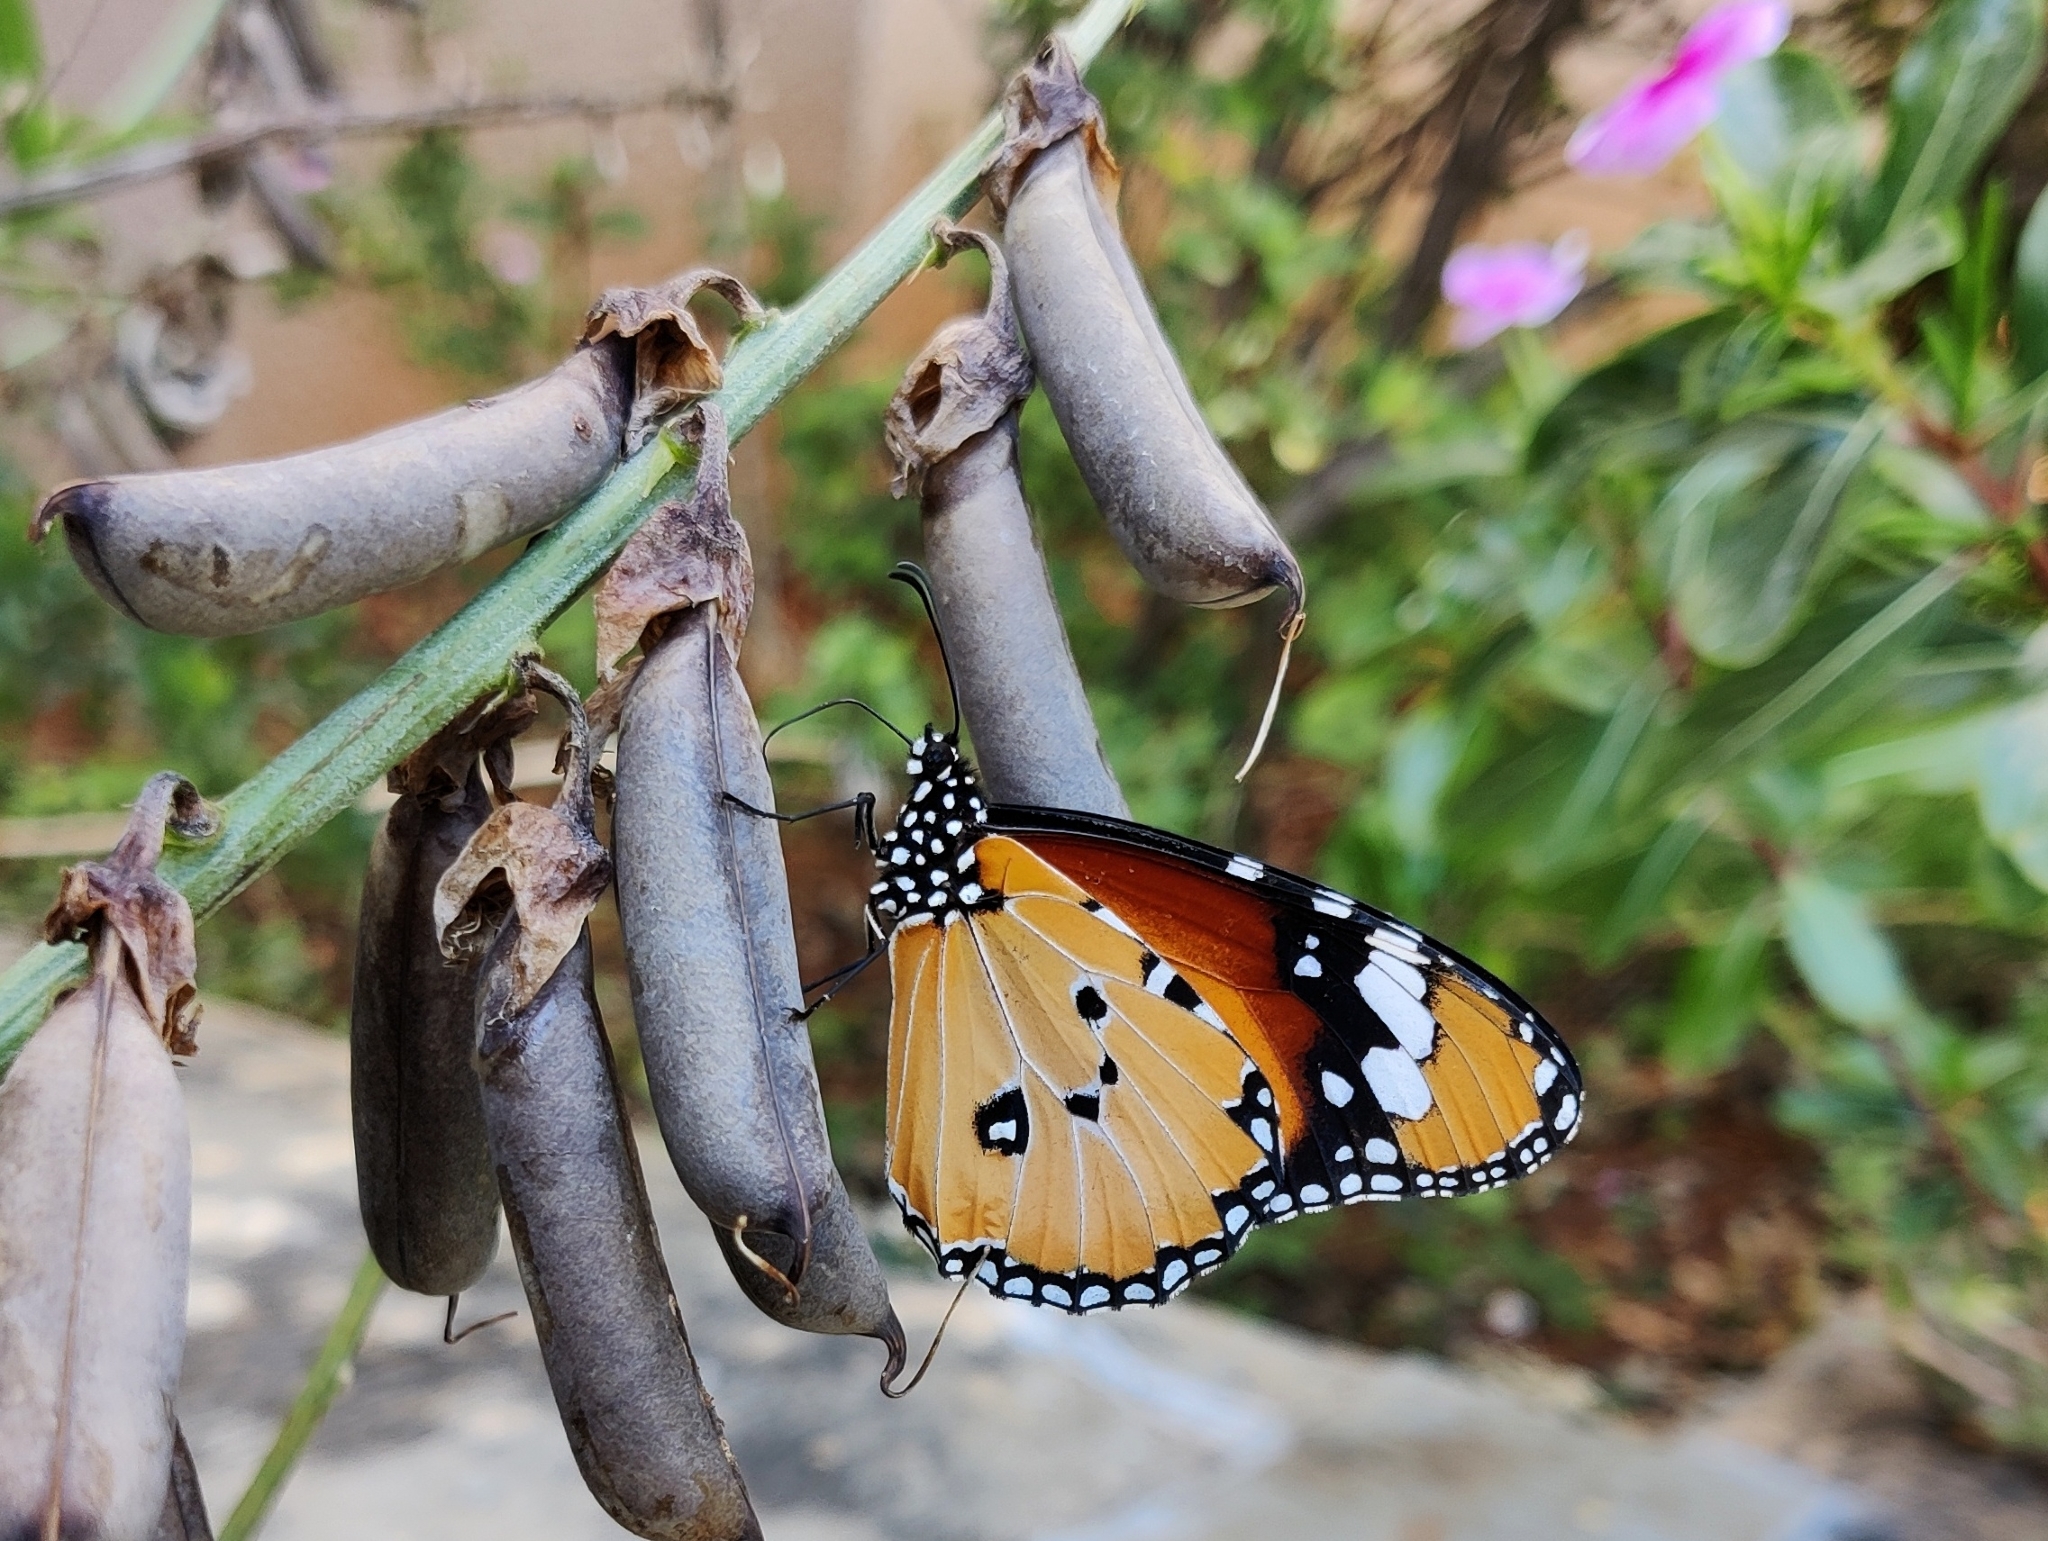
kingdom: Animalia
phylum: Arthropoda
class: Insecta
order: Lepidoptera
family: Nymphalidae
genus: Danaus
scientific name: Danaus chrysippus
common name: Plain tiger
